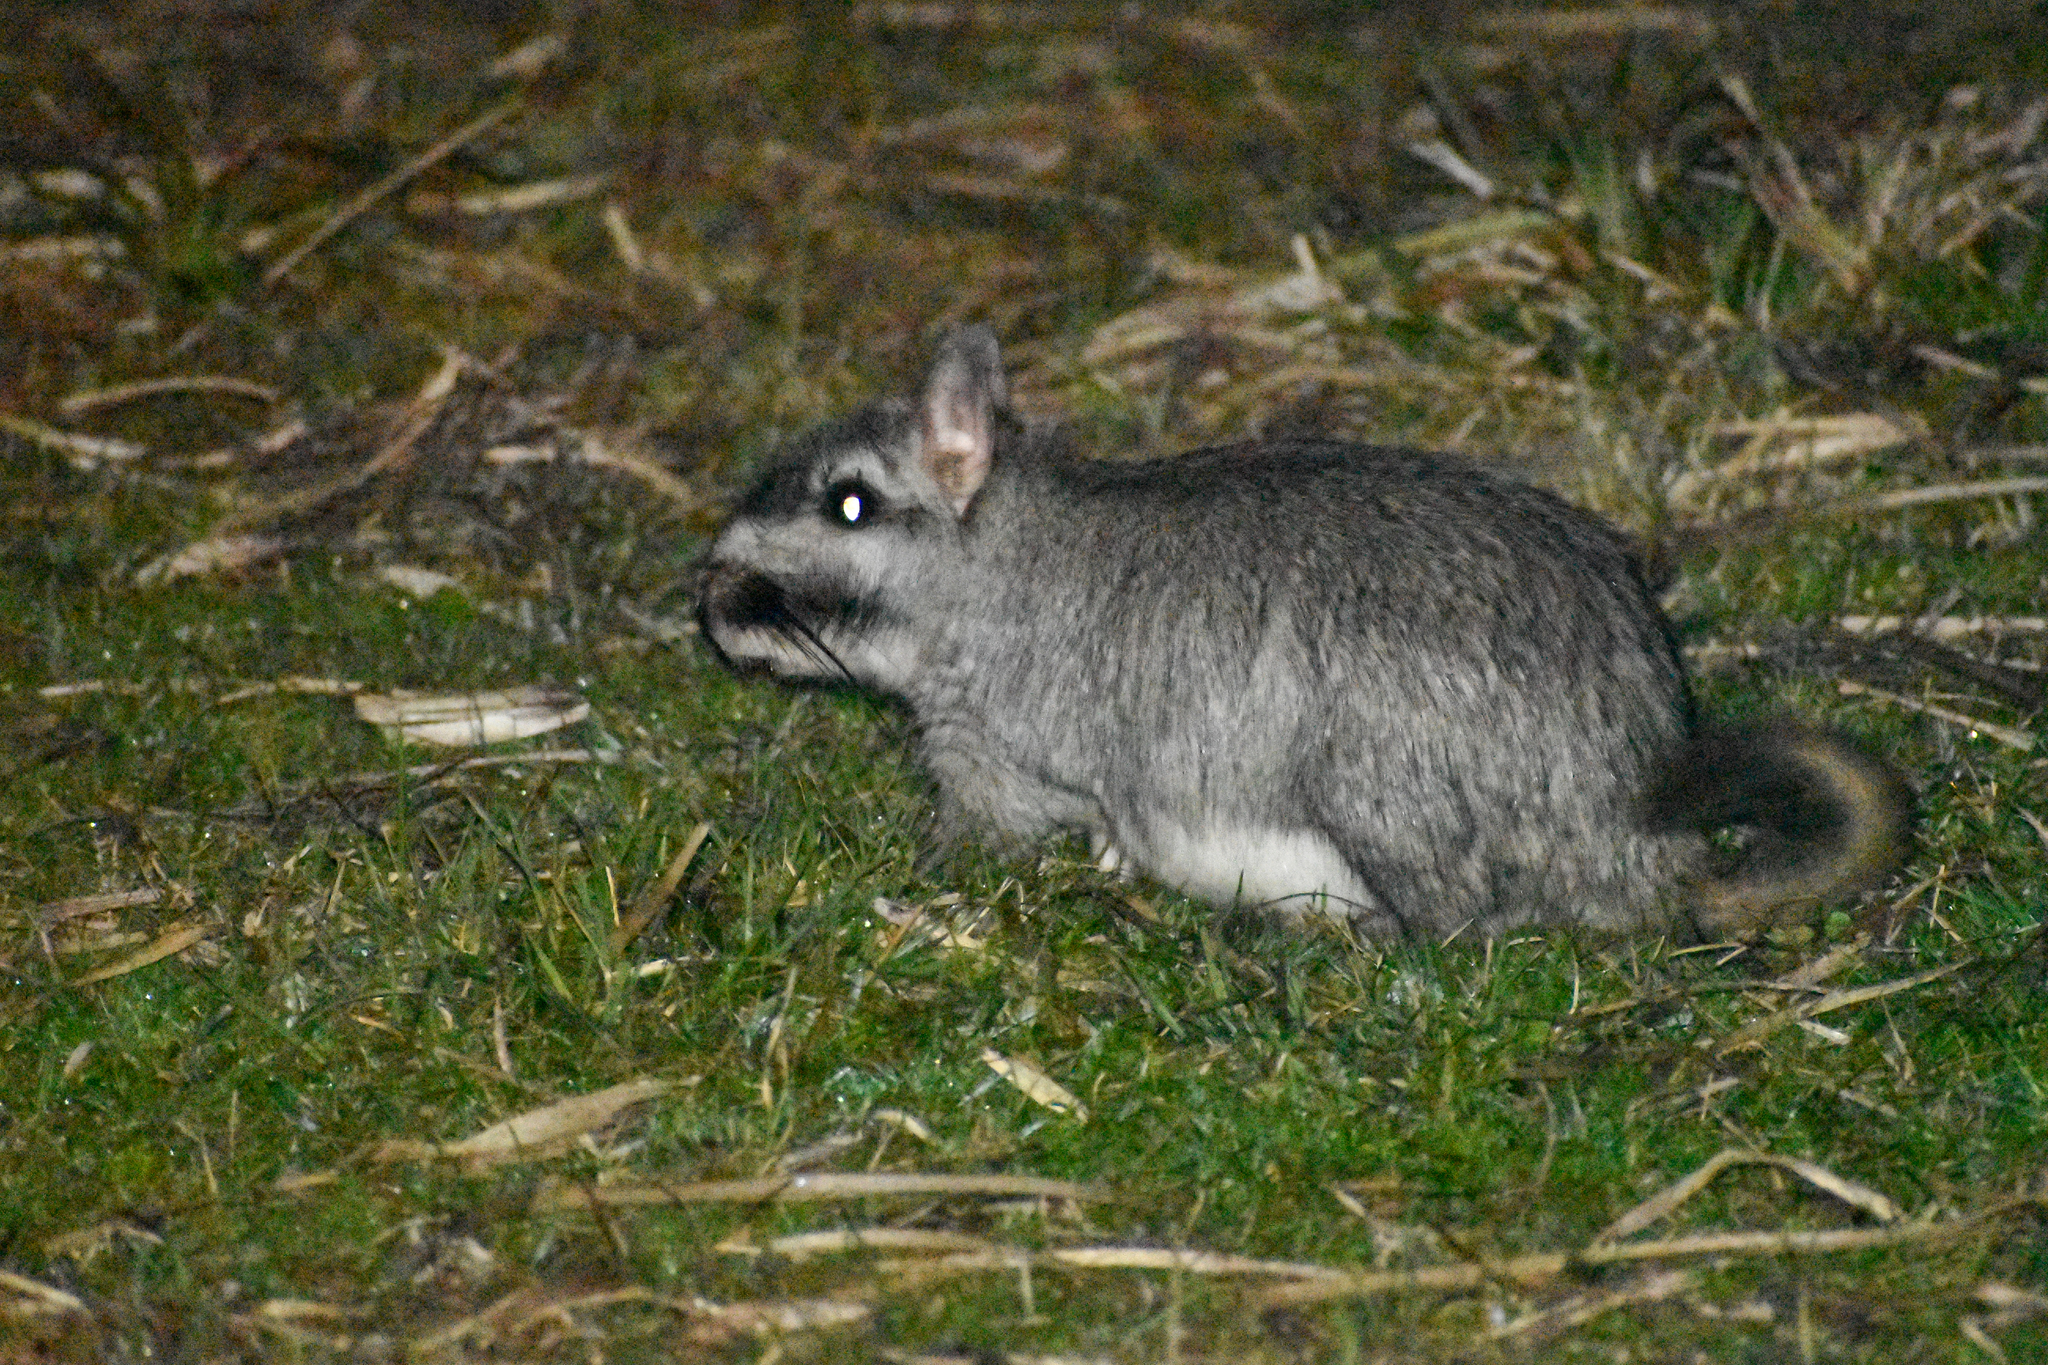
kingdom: Animalia
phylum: Chordata
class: Mammalia
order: Rodentia
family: Chinchillidae
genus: Lagostomus
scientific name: Lagostomus maximus
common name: Plains viscacha
